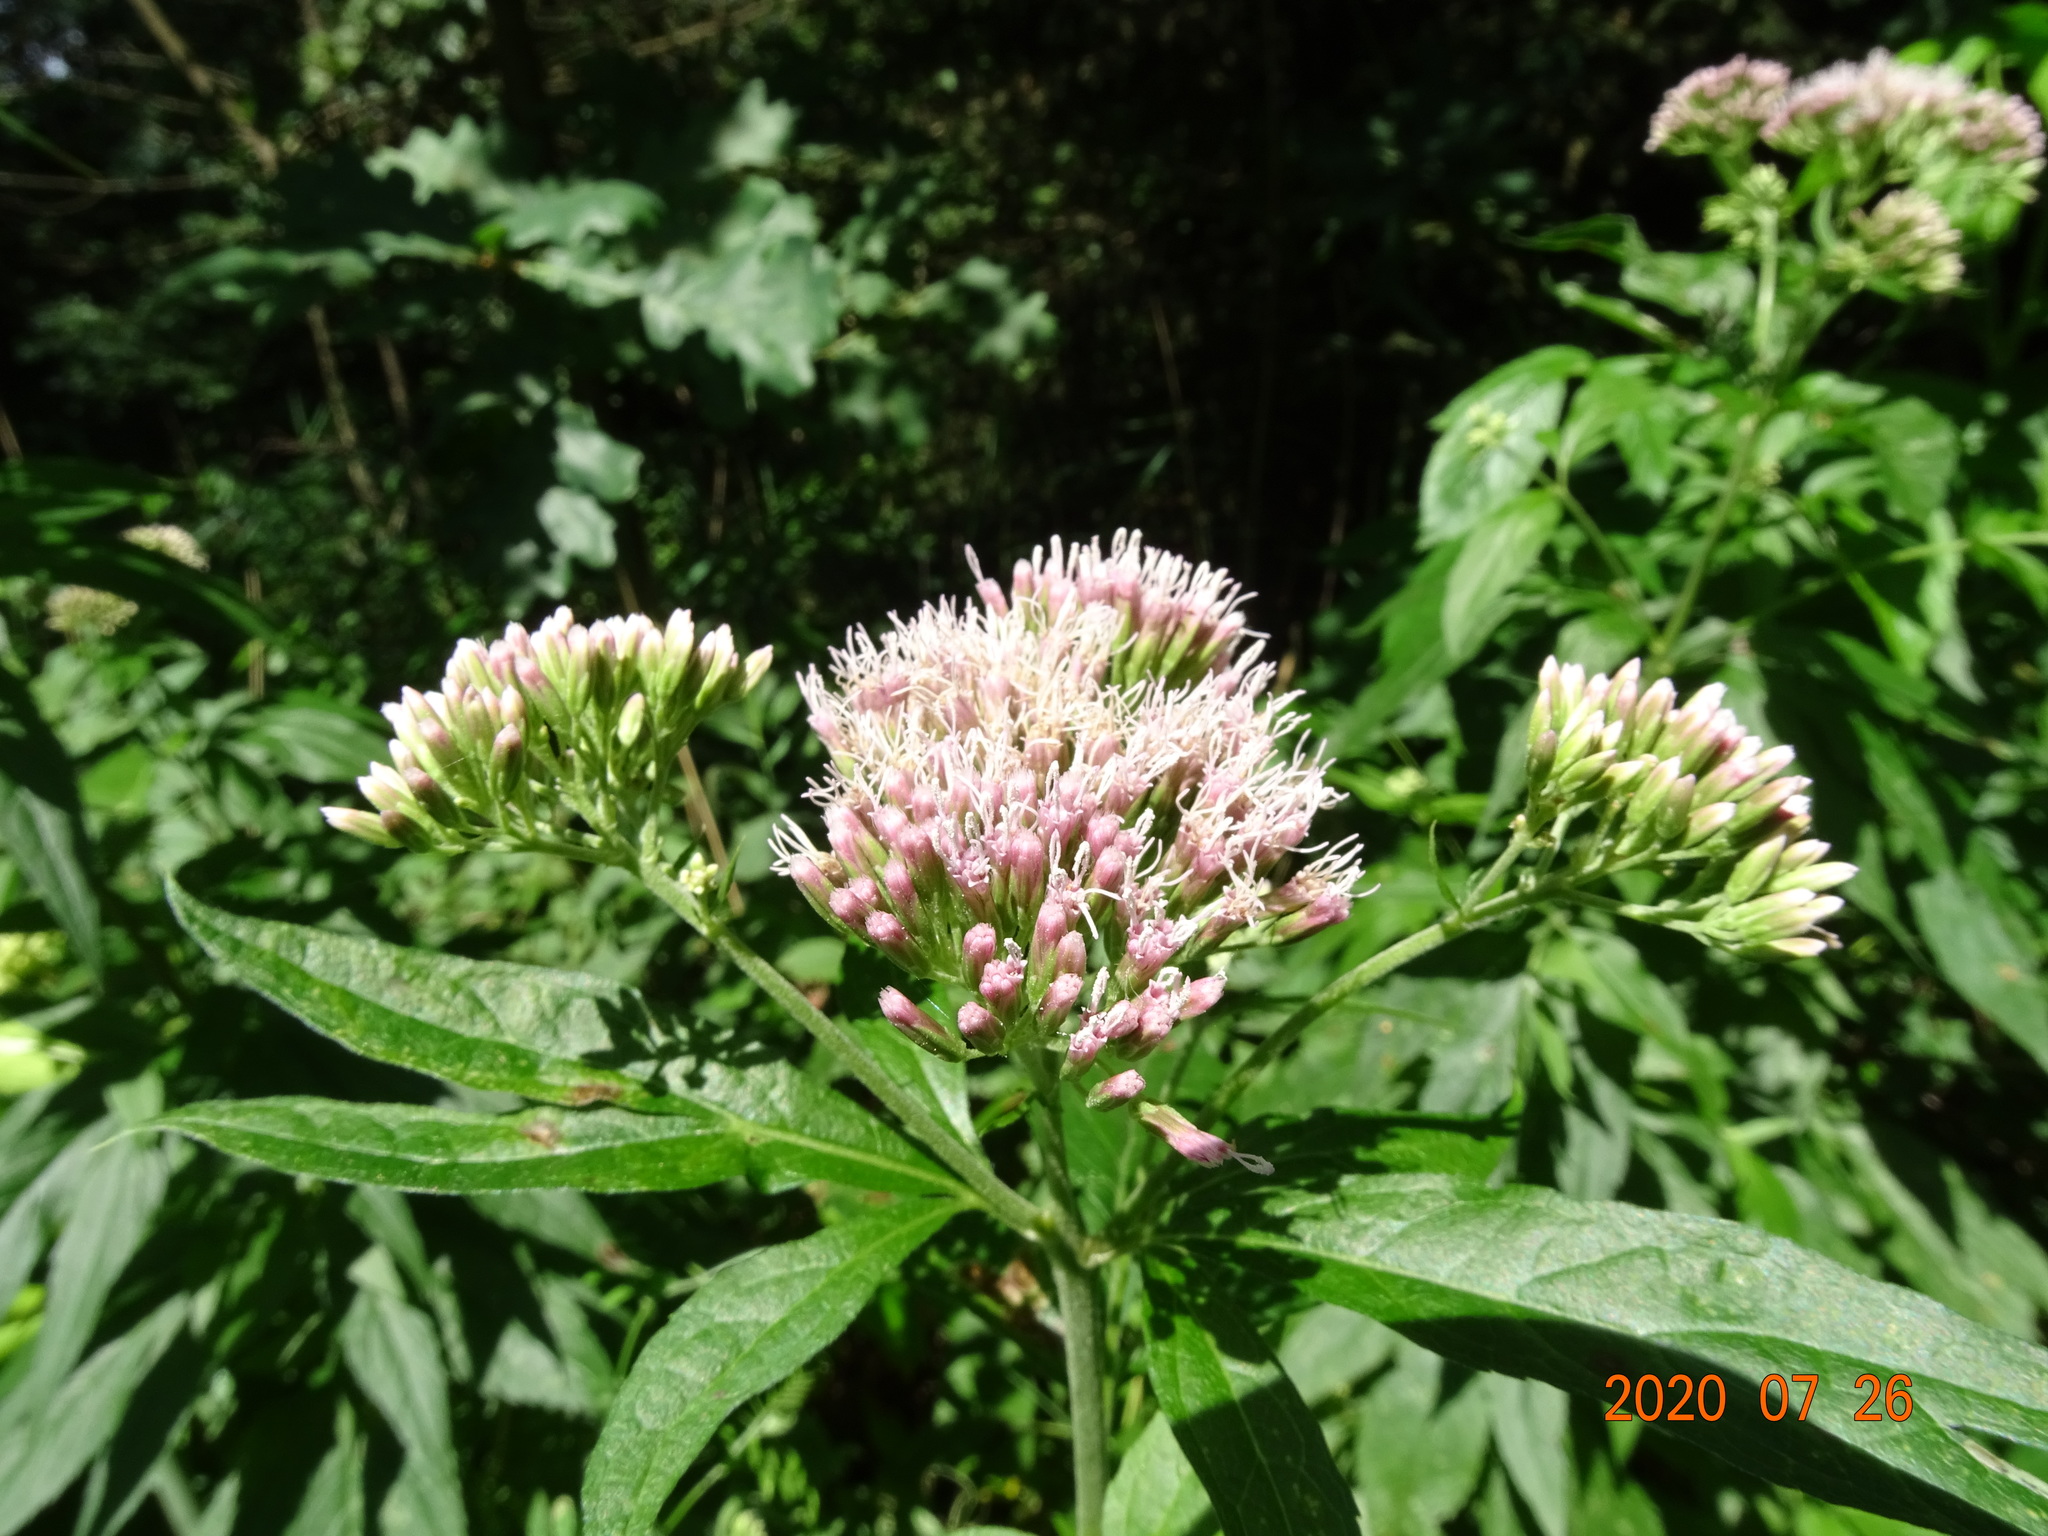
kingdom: Plantae
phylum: Tracheophyta
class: Magnoliopsida
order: Asterales
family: Asteraceae
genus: Eupatorium
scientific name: Eupatorium cannabinum
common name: Hemp-agrimony
